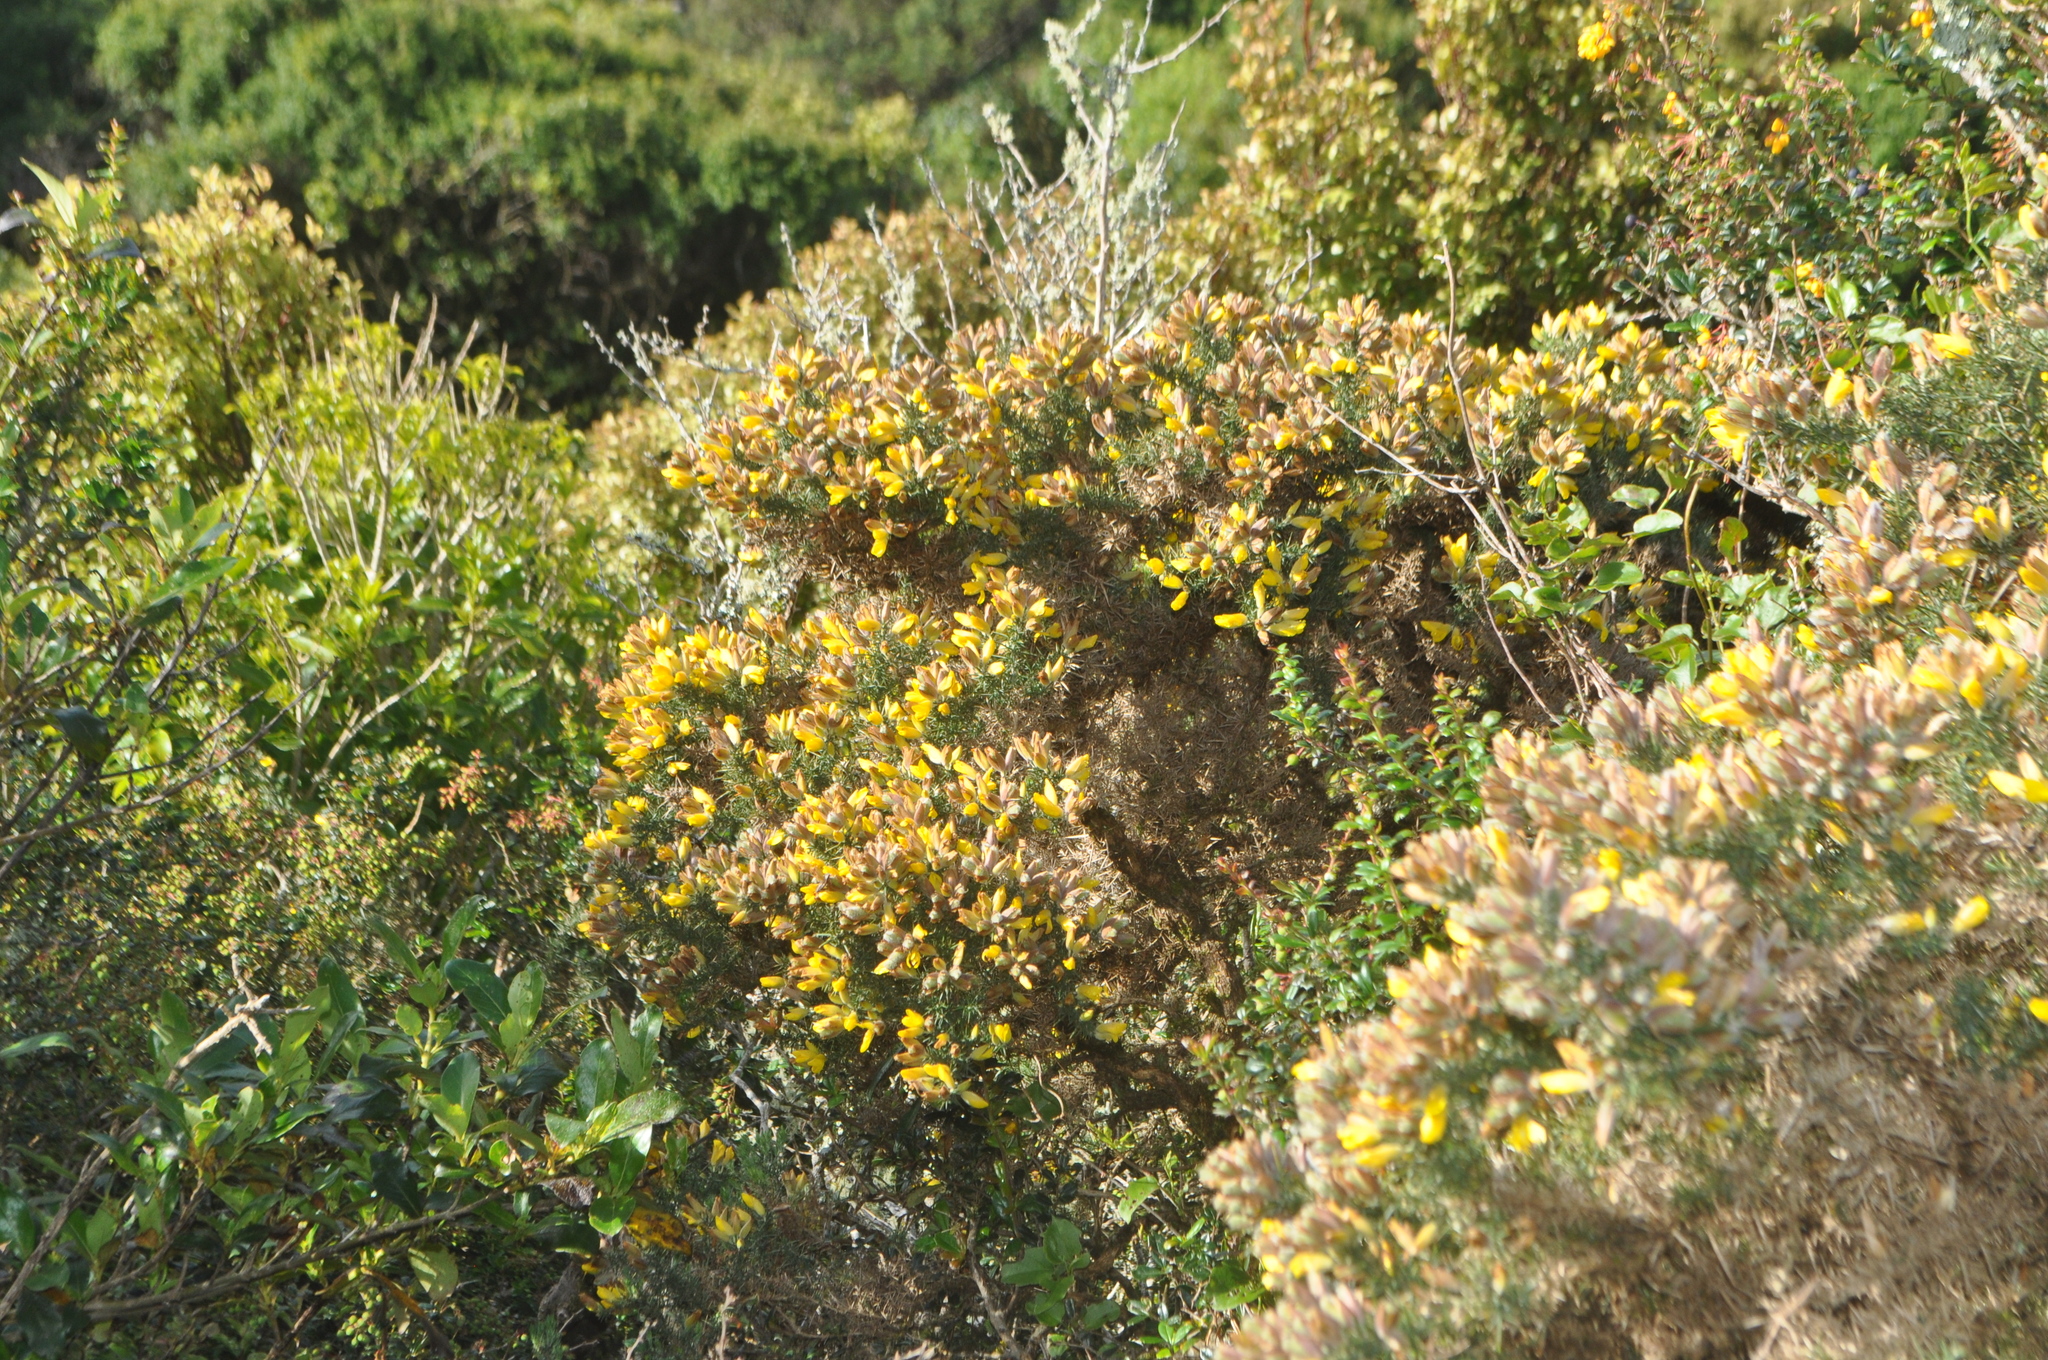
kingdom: Plantae
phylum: Tracheophyta
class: Magnoliopsida
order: Fabales
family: Fabaceae
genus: Ulex
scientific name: Ulex europaeus
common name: Common gorse
